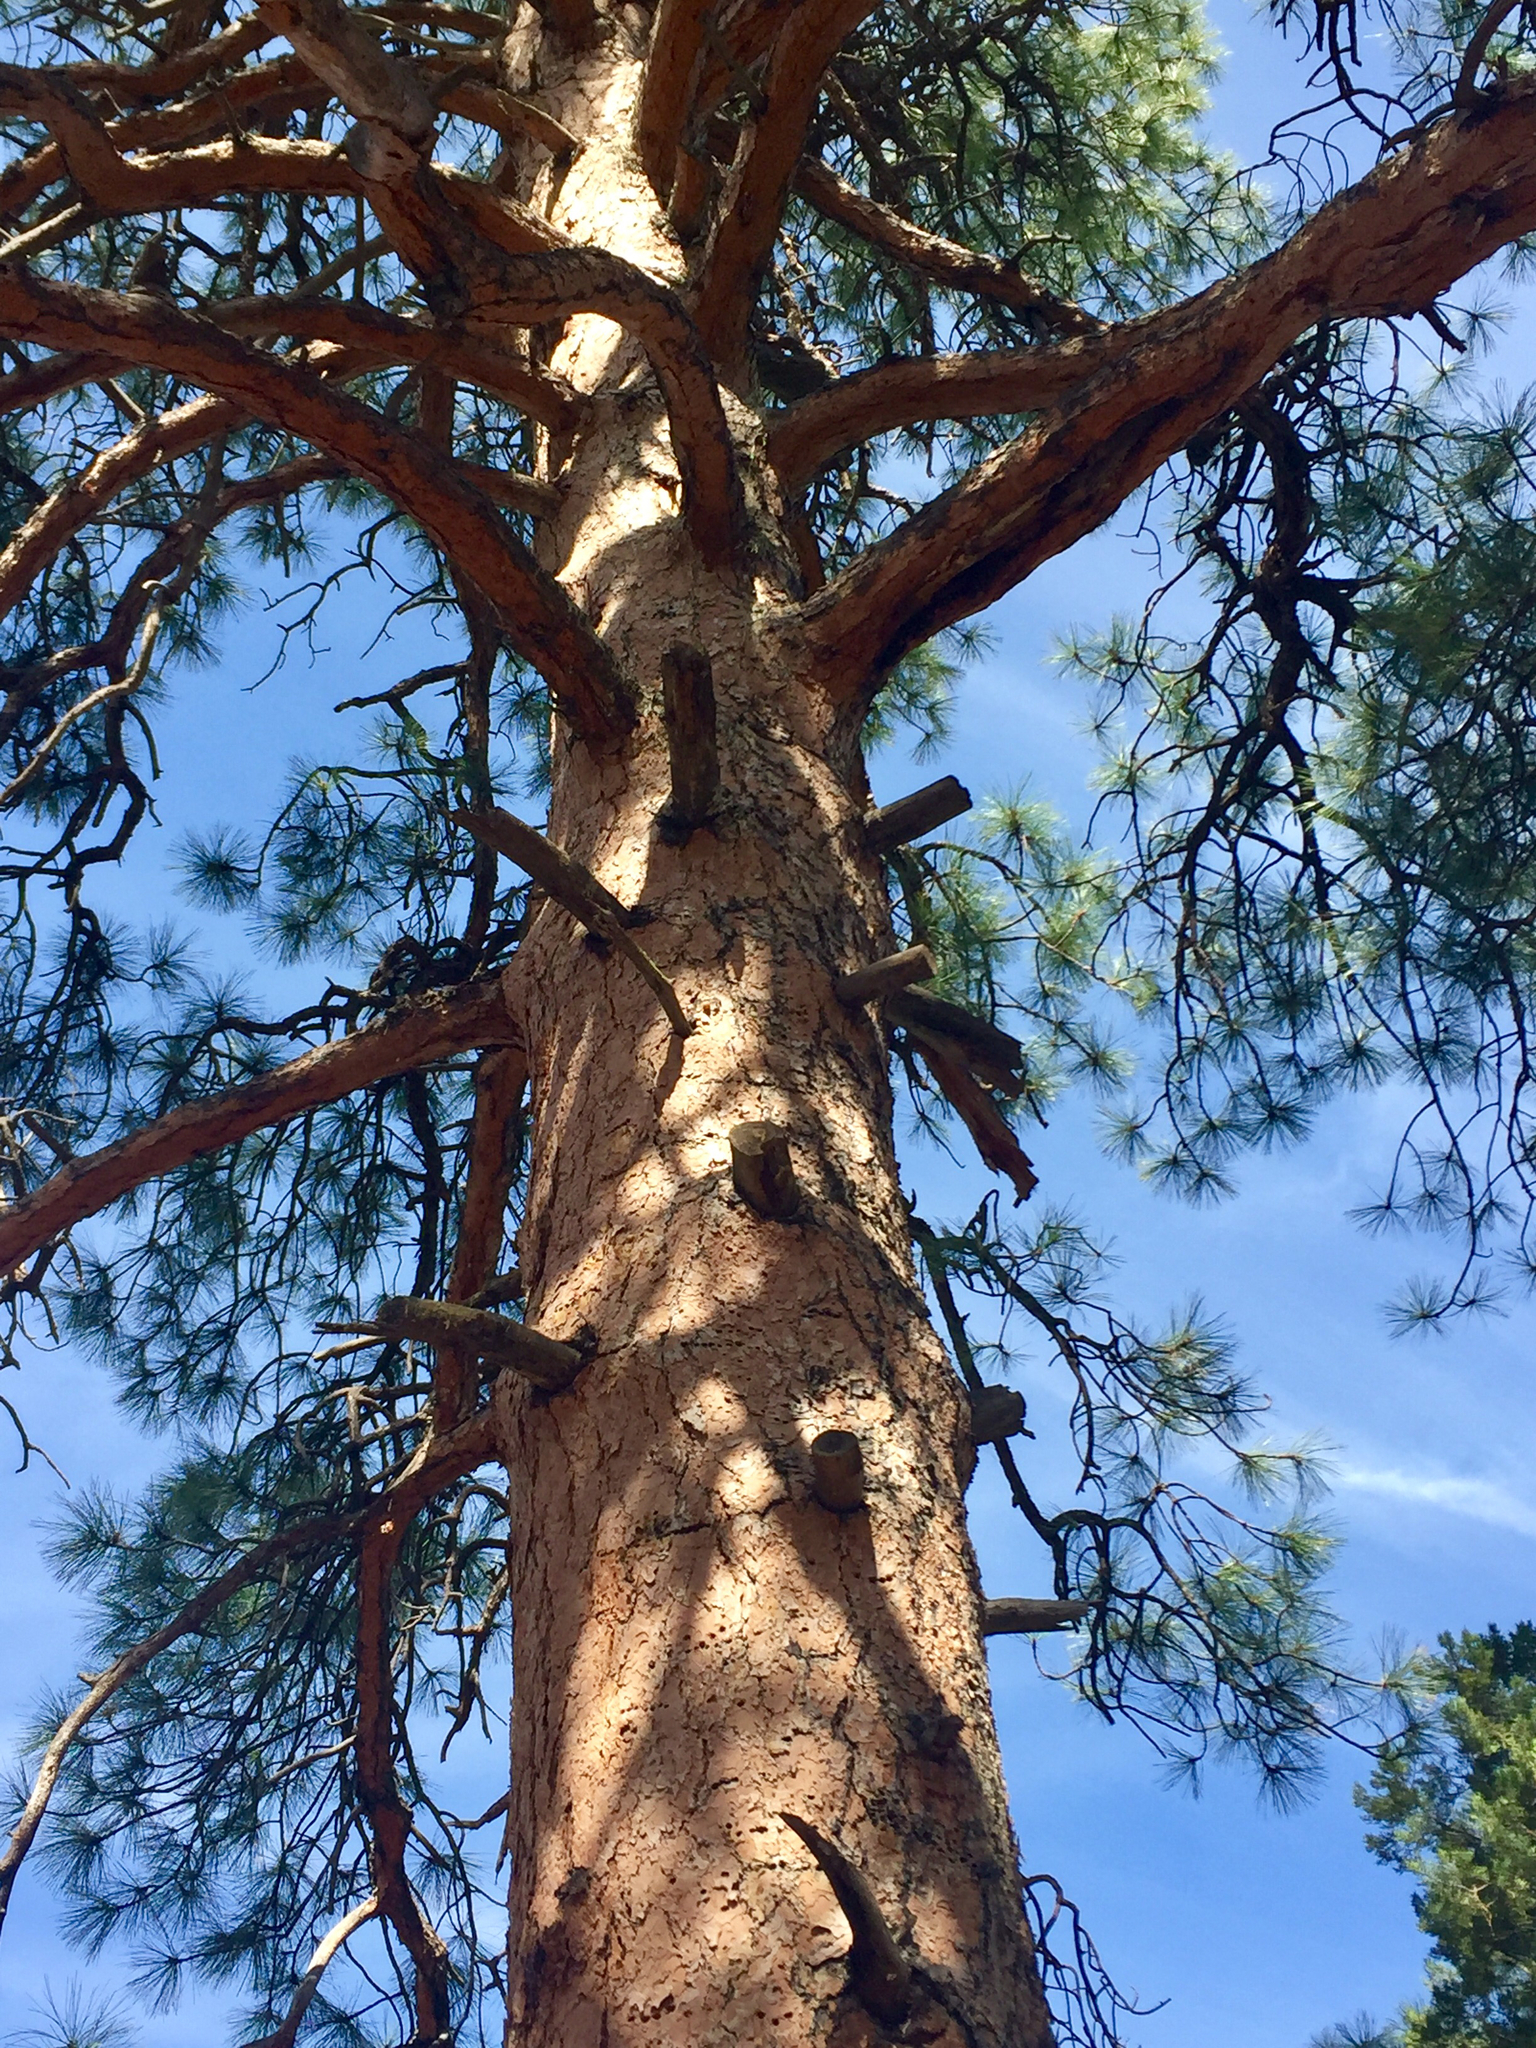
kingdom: Plantae
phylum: Tracheophyta
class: Pinopsida
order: Pinales
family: Pinaceae
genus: Pinus
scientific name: Pinus ponderosa
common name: Western yellow-pine
